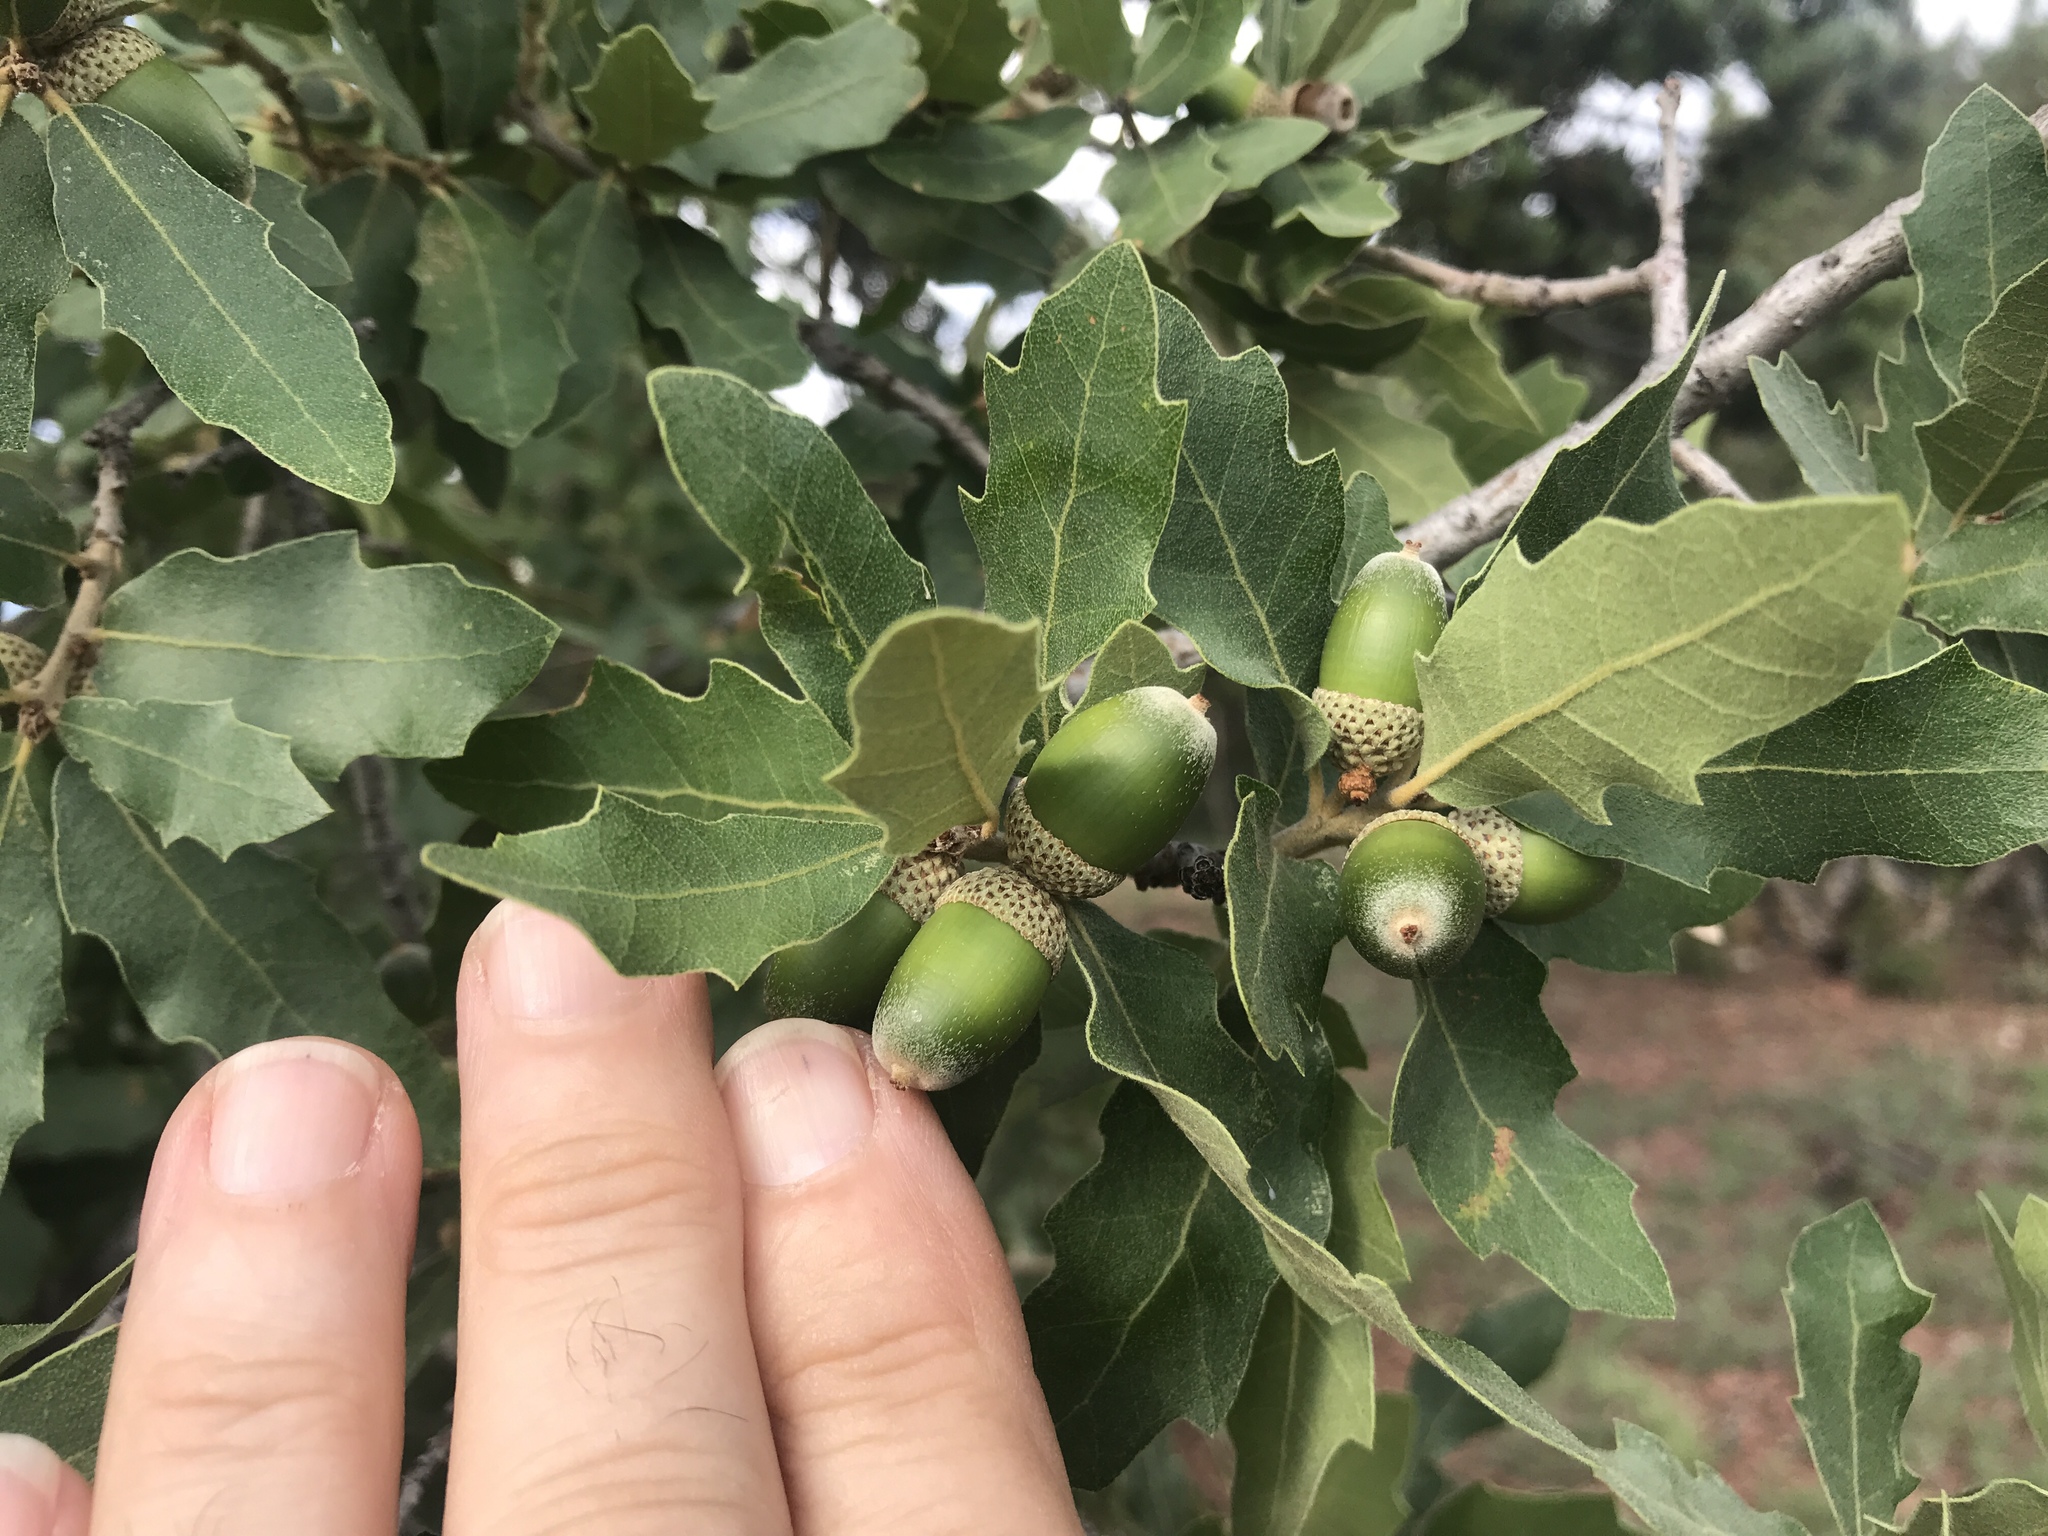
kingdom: Plantae
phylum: Tracheophyta
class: Magnoliopsida
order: Fagales
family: Fagaceae
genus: Quercus
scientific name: Quercus undulata
